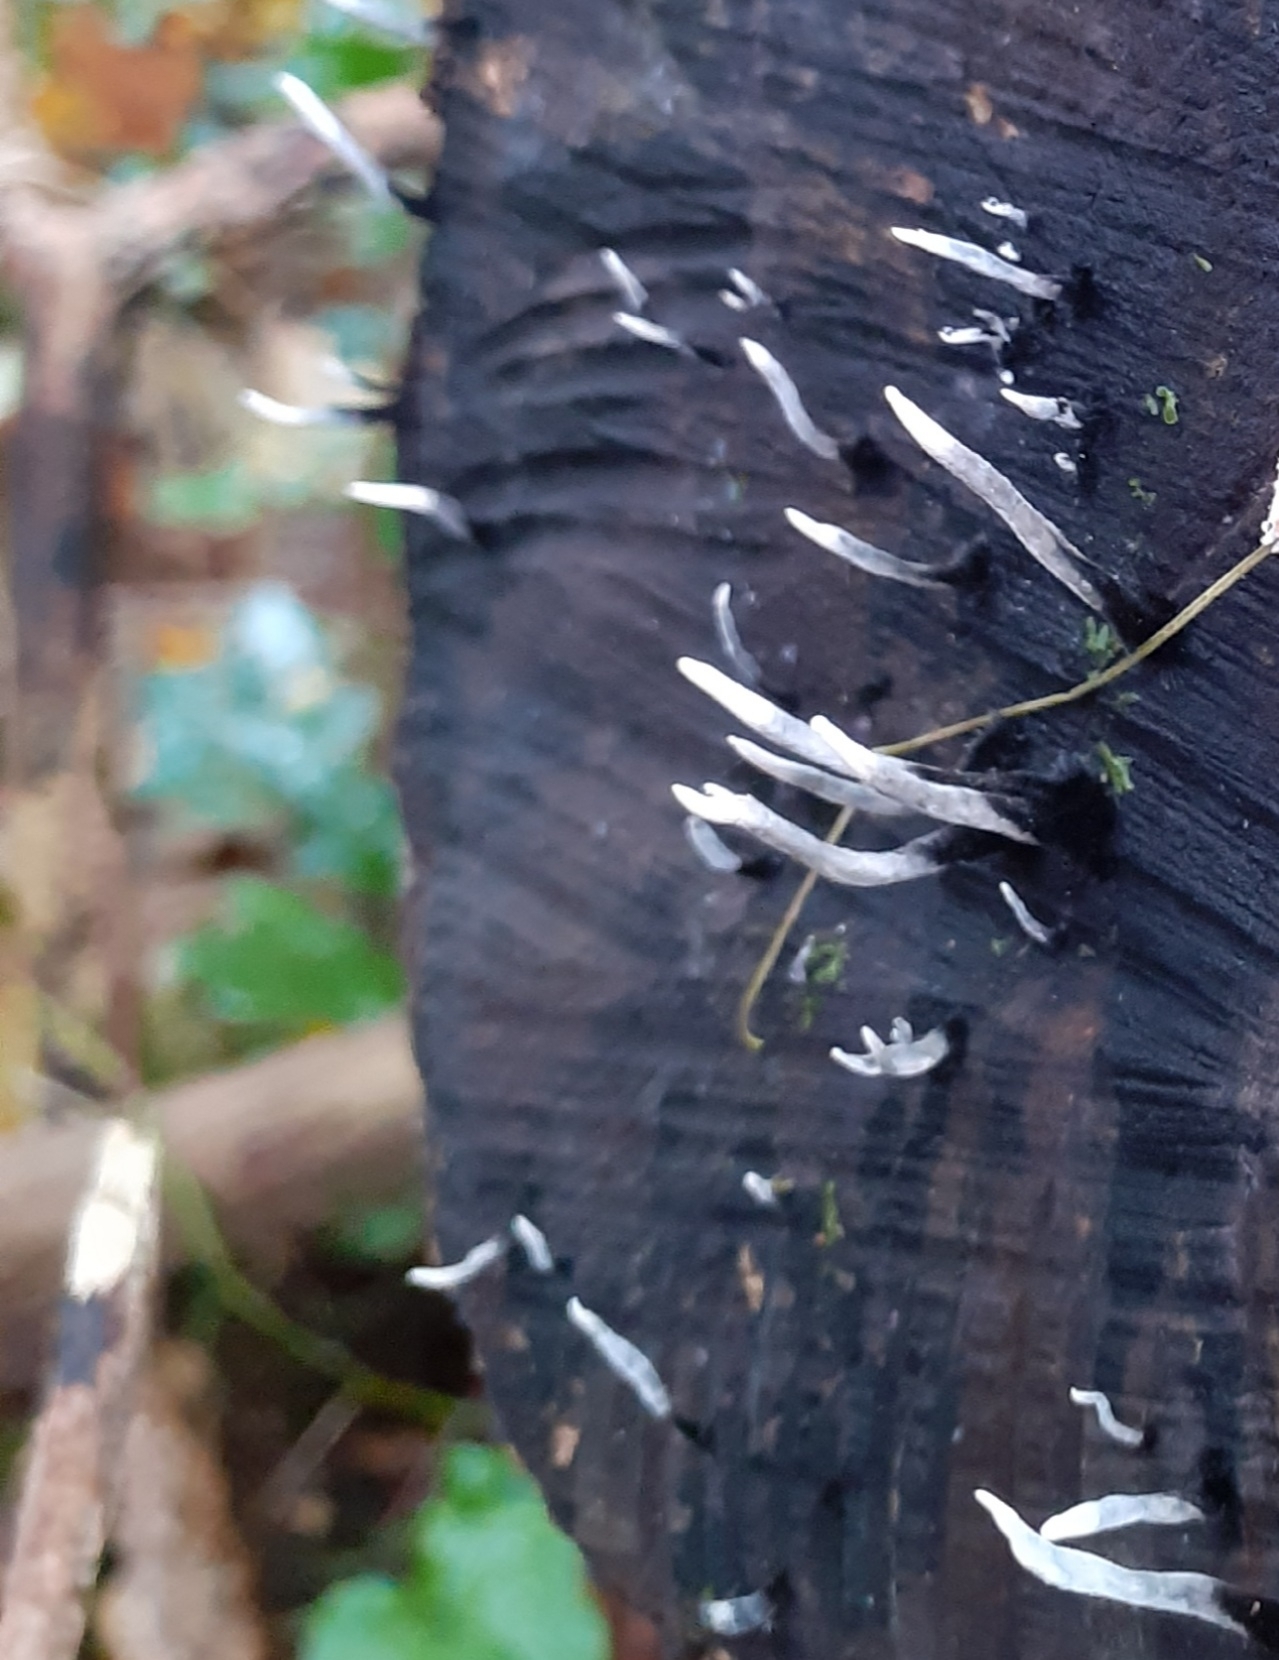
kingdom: Fungi
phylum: Ascomycota
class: Sordariomycetes
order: Xylariales
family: Xylariaceae
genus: Xylaria
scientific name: Xylaria hypoxylon
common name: Candle-snuff fungus
